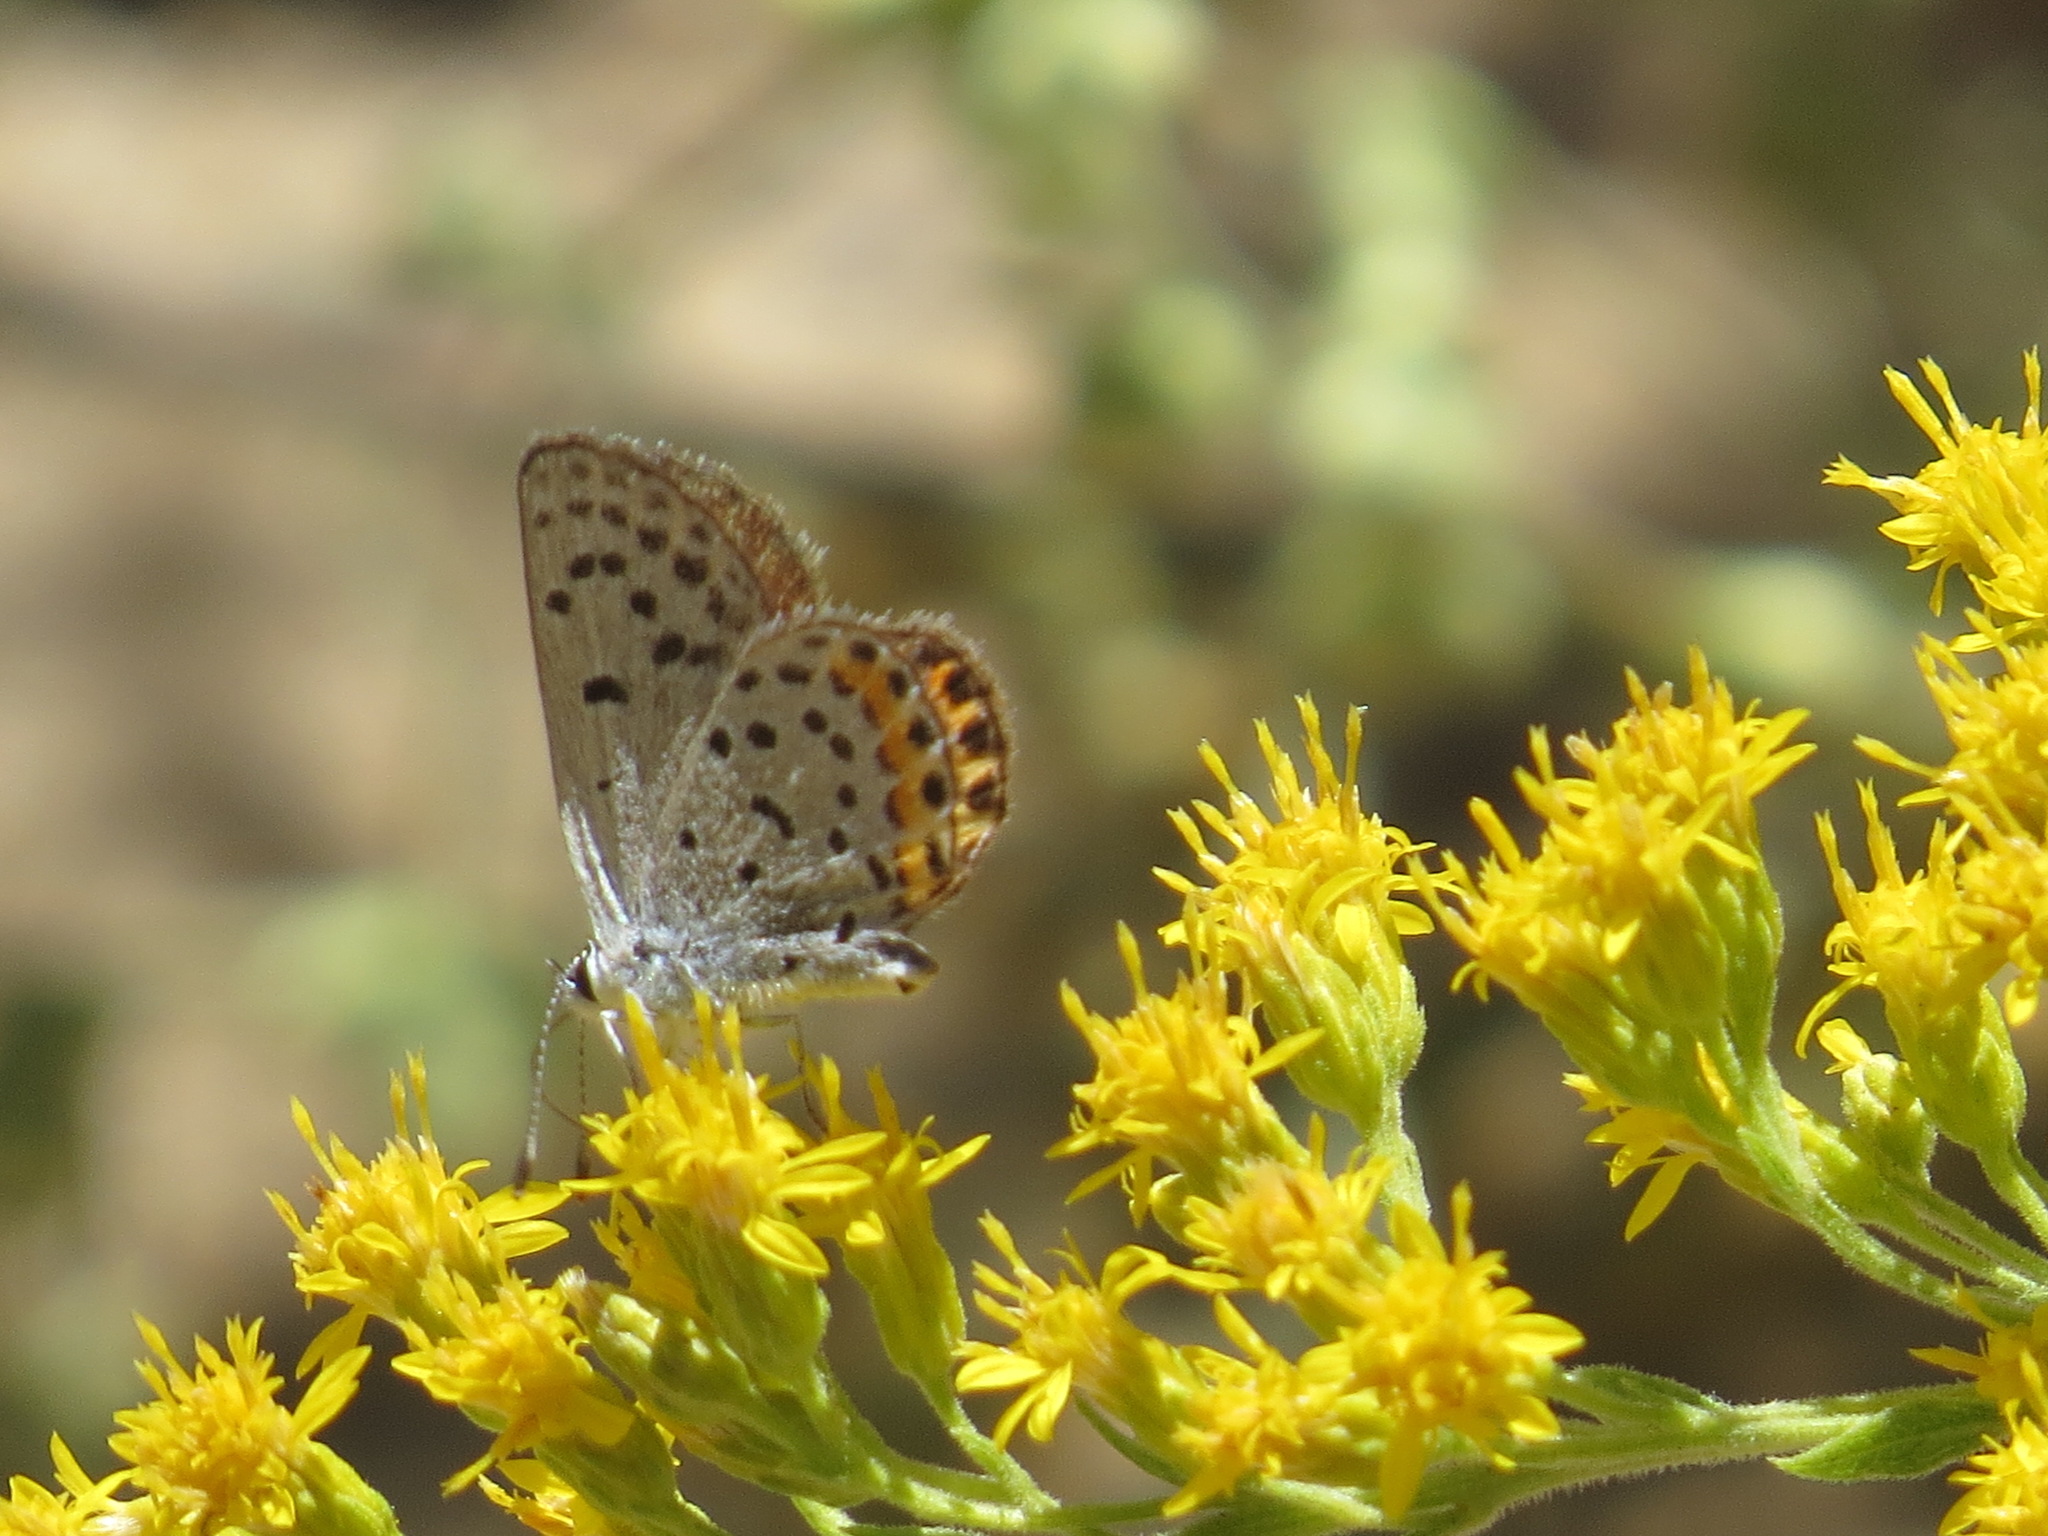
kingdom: Animalia
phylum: Arthropoda
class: Insecta
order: Lepidoptera
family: Lycaenidae
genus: Icaricia
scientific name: Icaricia acmon
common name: Acmon blue
